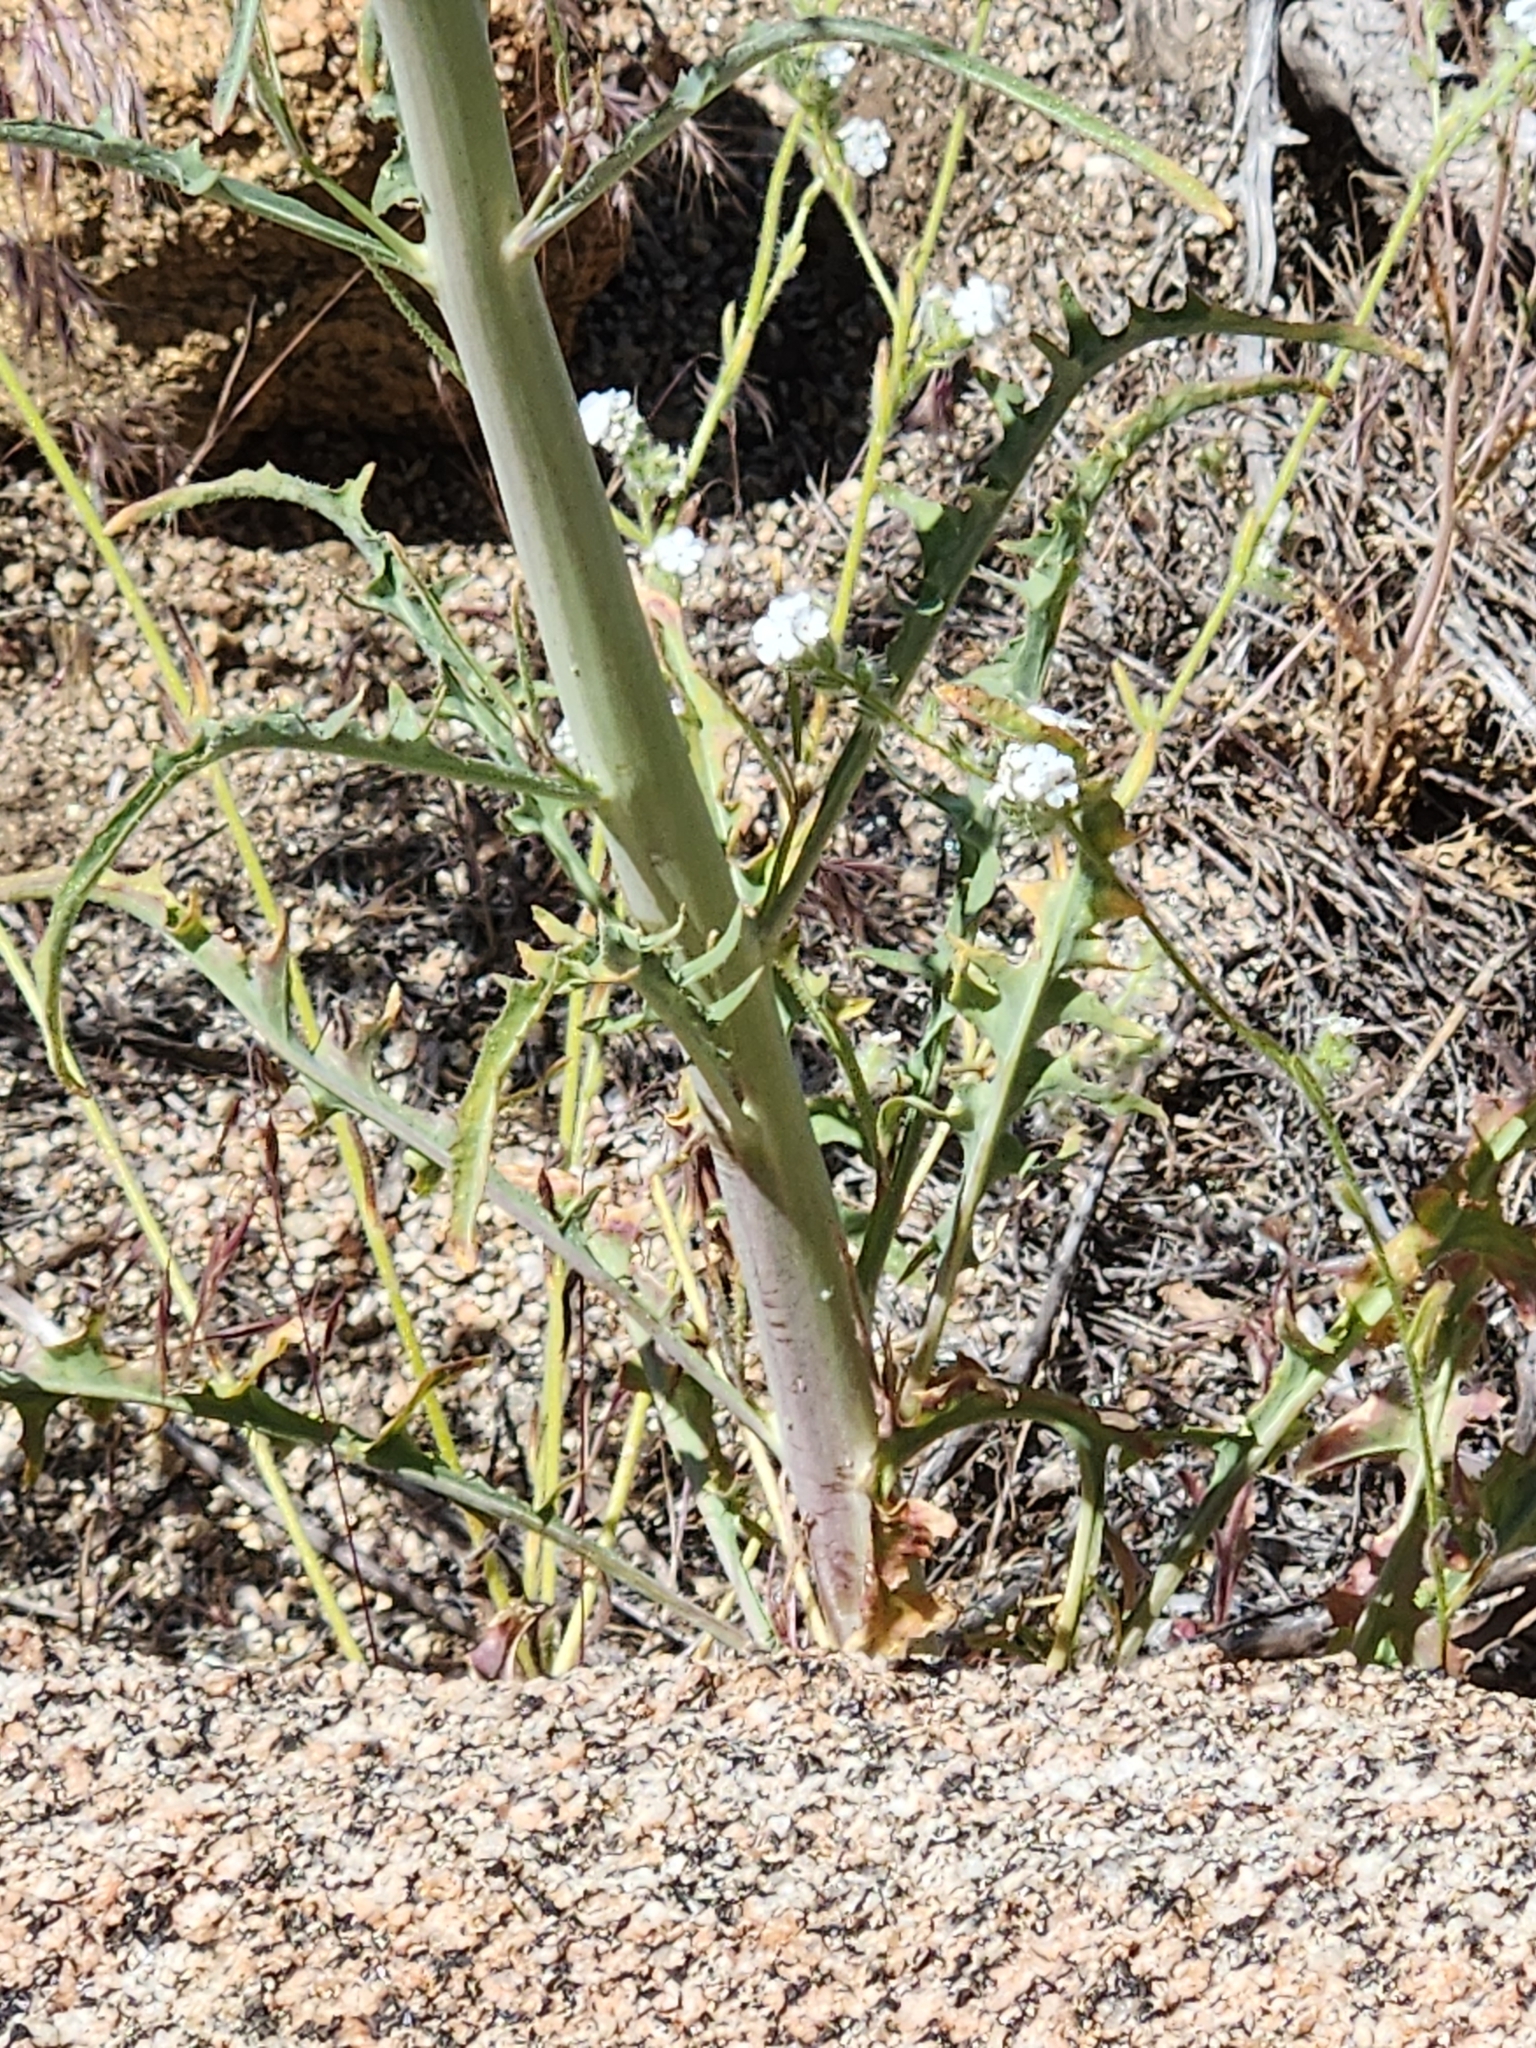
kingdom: Plantae
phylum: Tracheophyta
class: Magnoliopsida
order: Brassicales
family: Brassicaceae
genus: Streptanthus
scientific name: Streptanthus hallii
